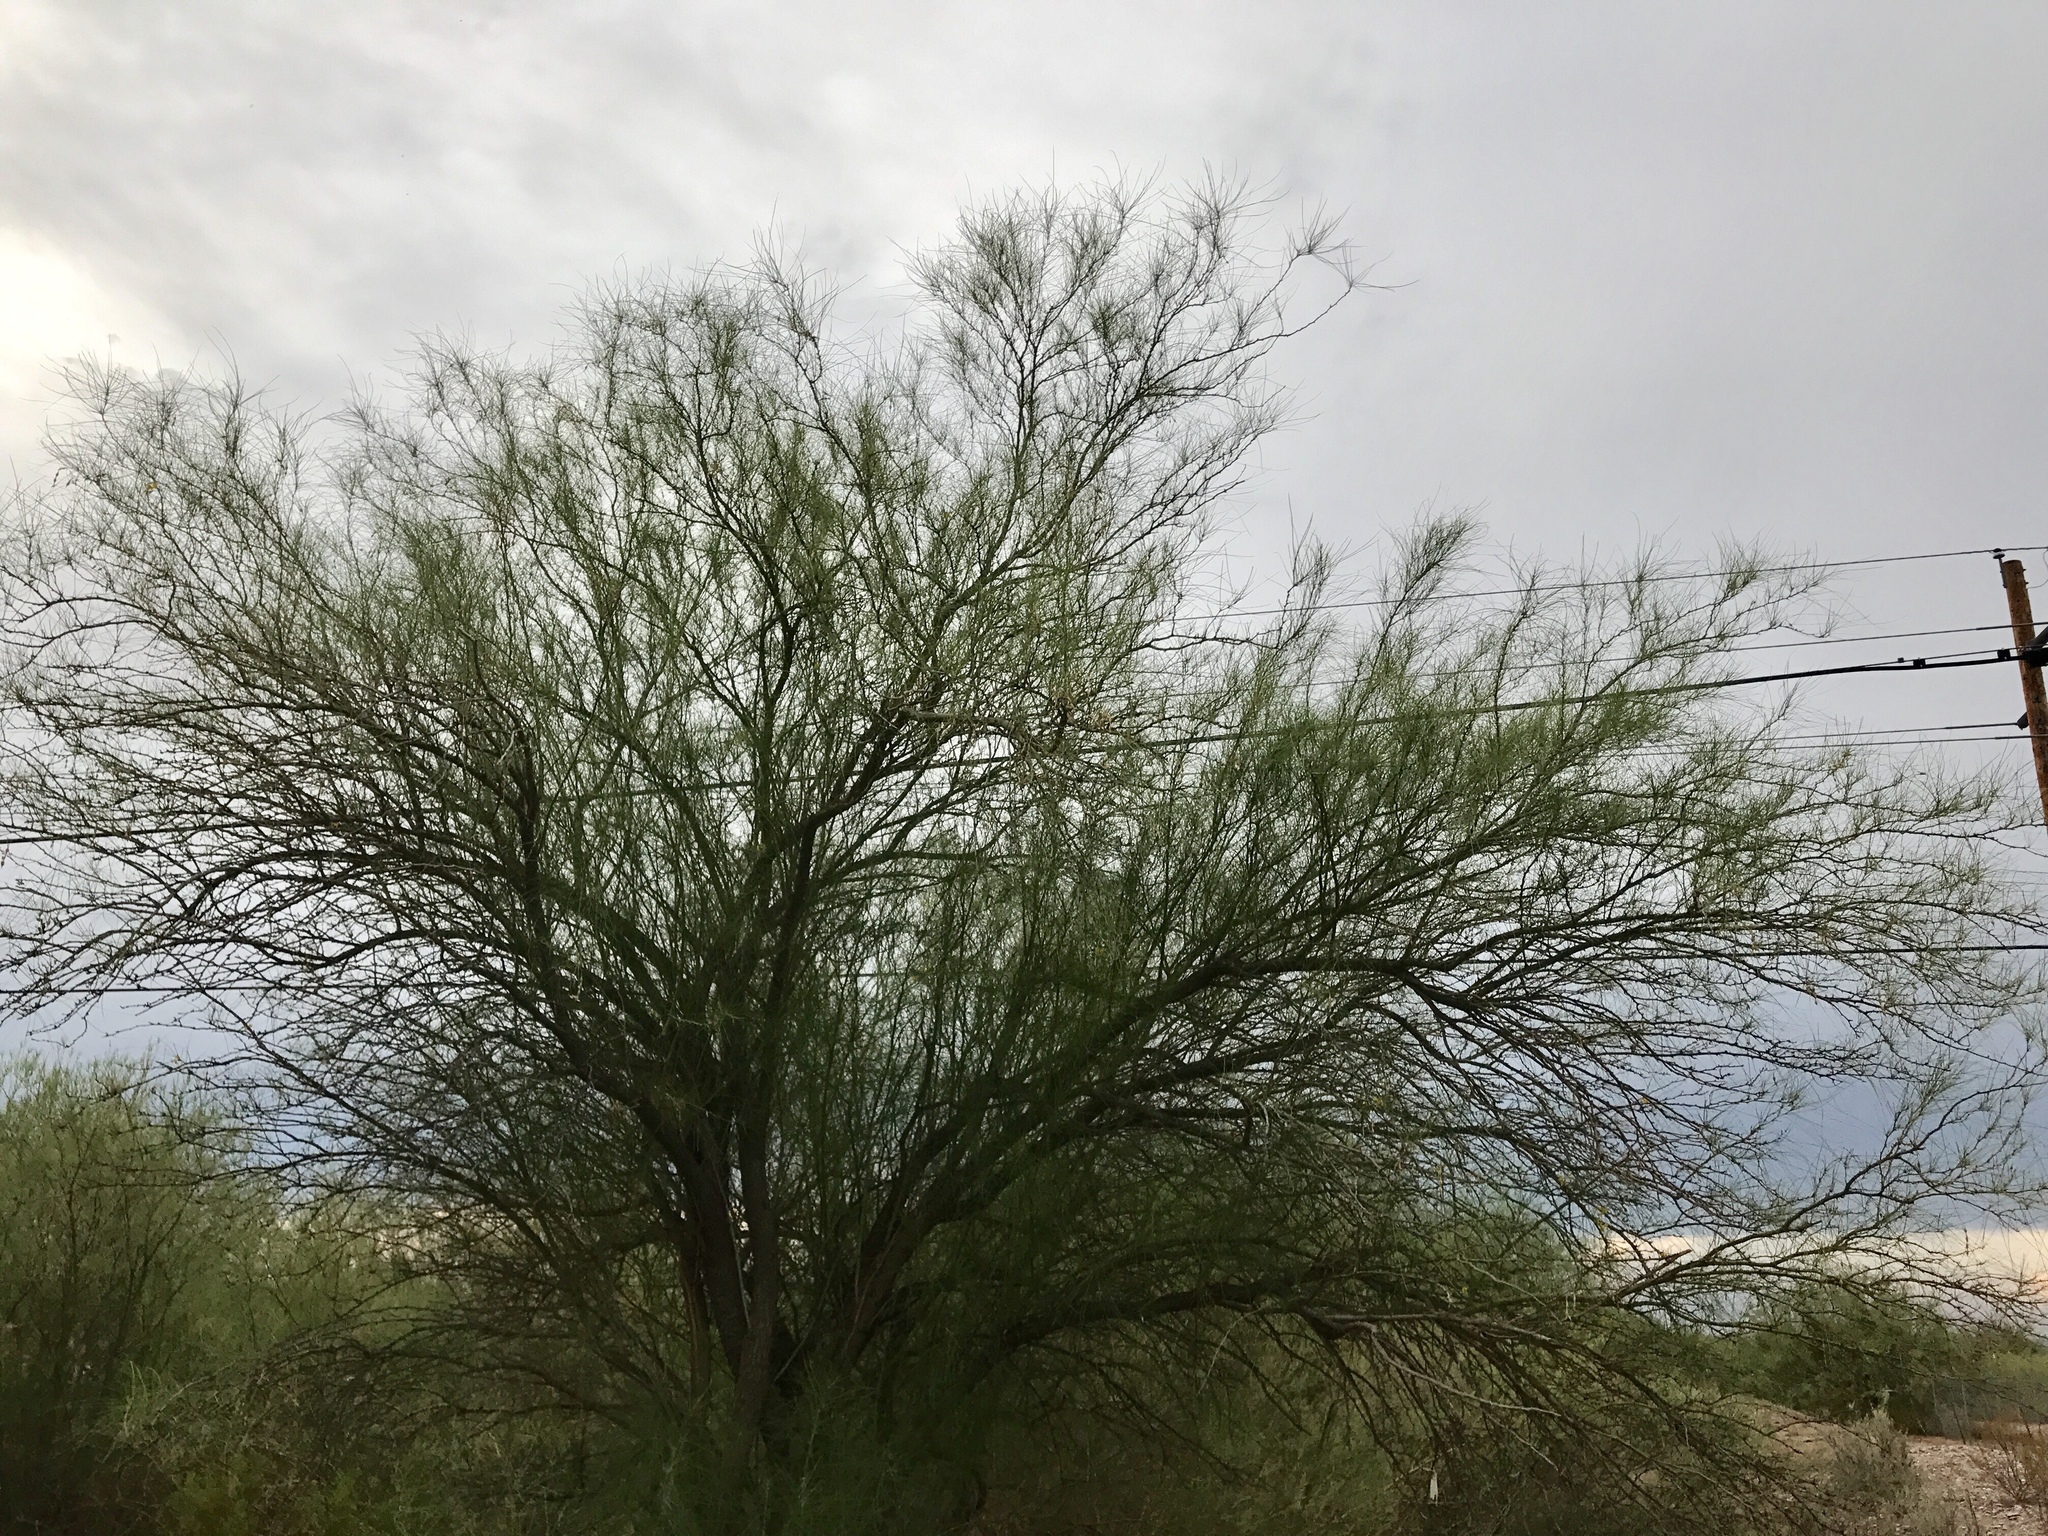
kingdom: Plantae
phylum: Tracheophyta
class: Magnoliopsida
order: Fabales
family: Fabaceae
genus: Parkinsonia
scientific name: Parkinsonia aculeata
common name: Jerusalem thorn
